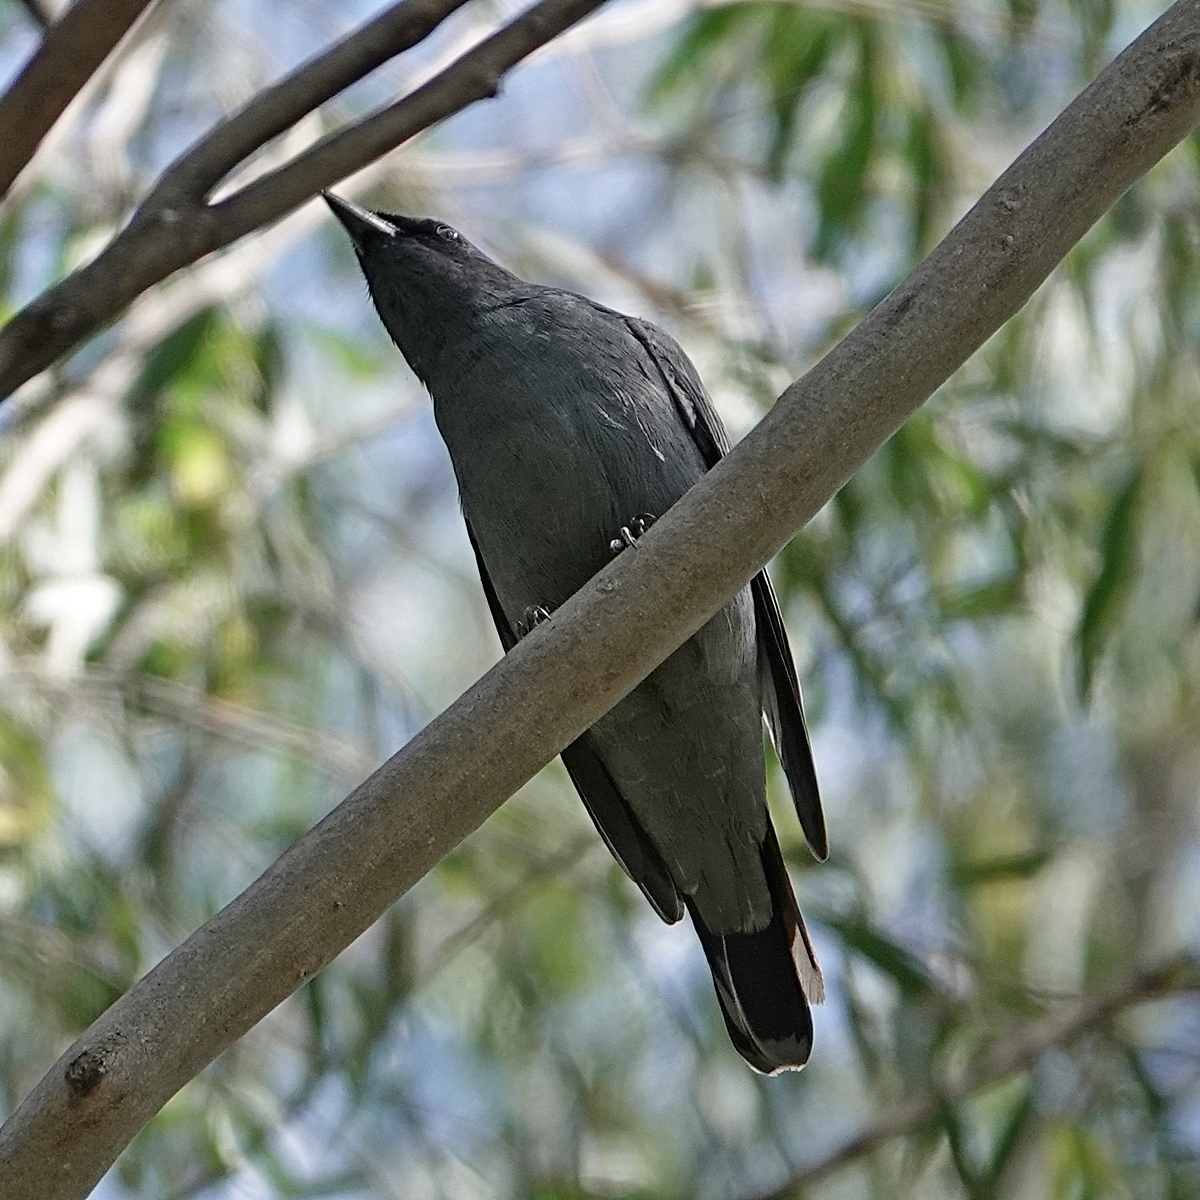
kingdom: Animalia
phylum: Chordata
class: Aves
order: Passeriformes
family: Campephagidae
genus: Edolisoma
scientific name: Edolisoma tenuirostre
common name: Common cicadabird
